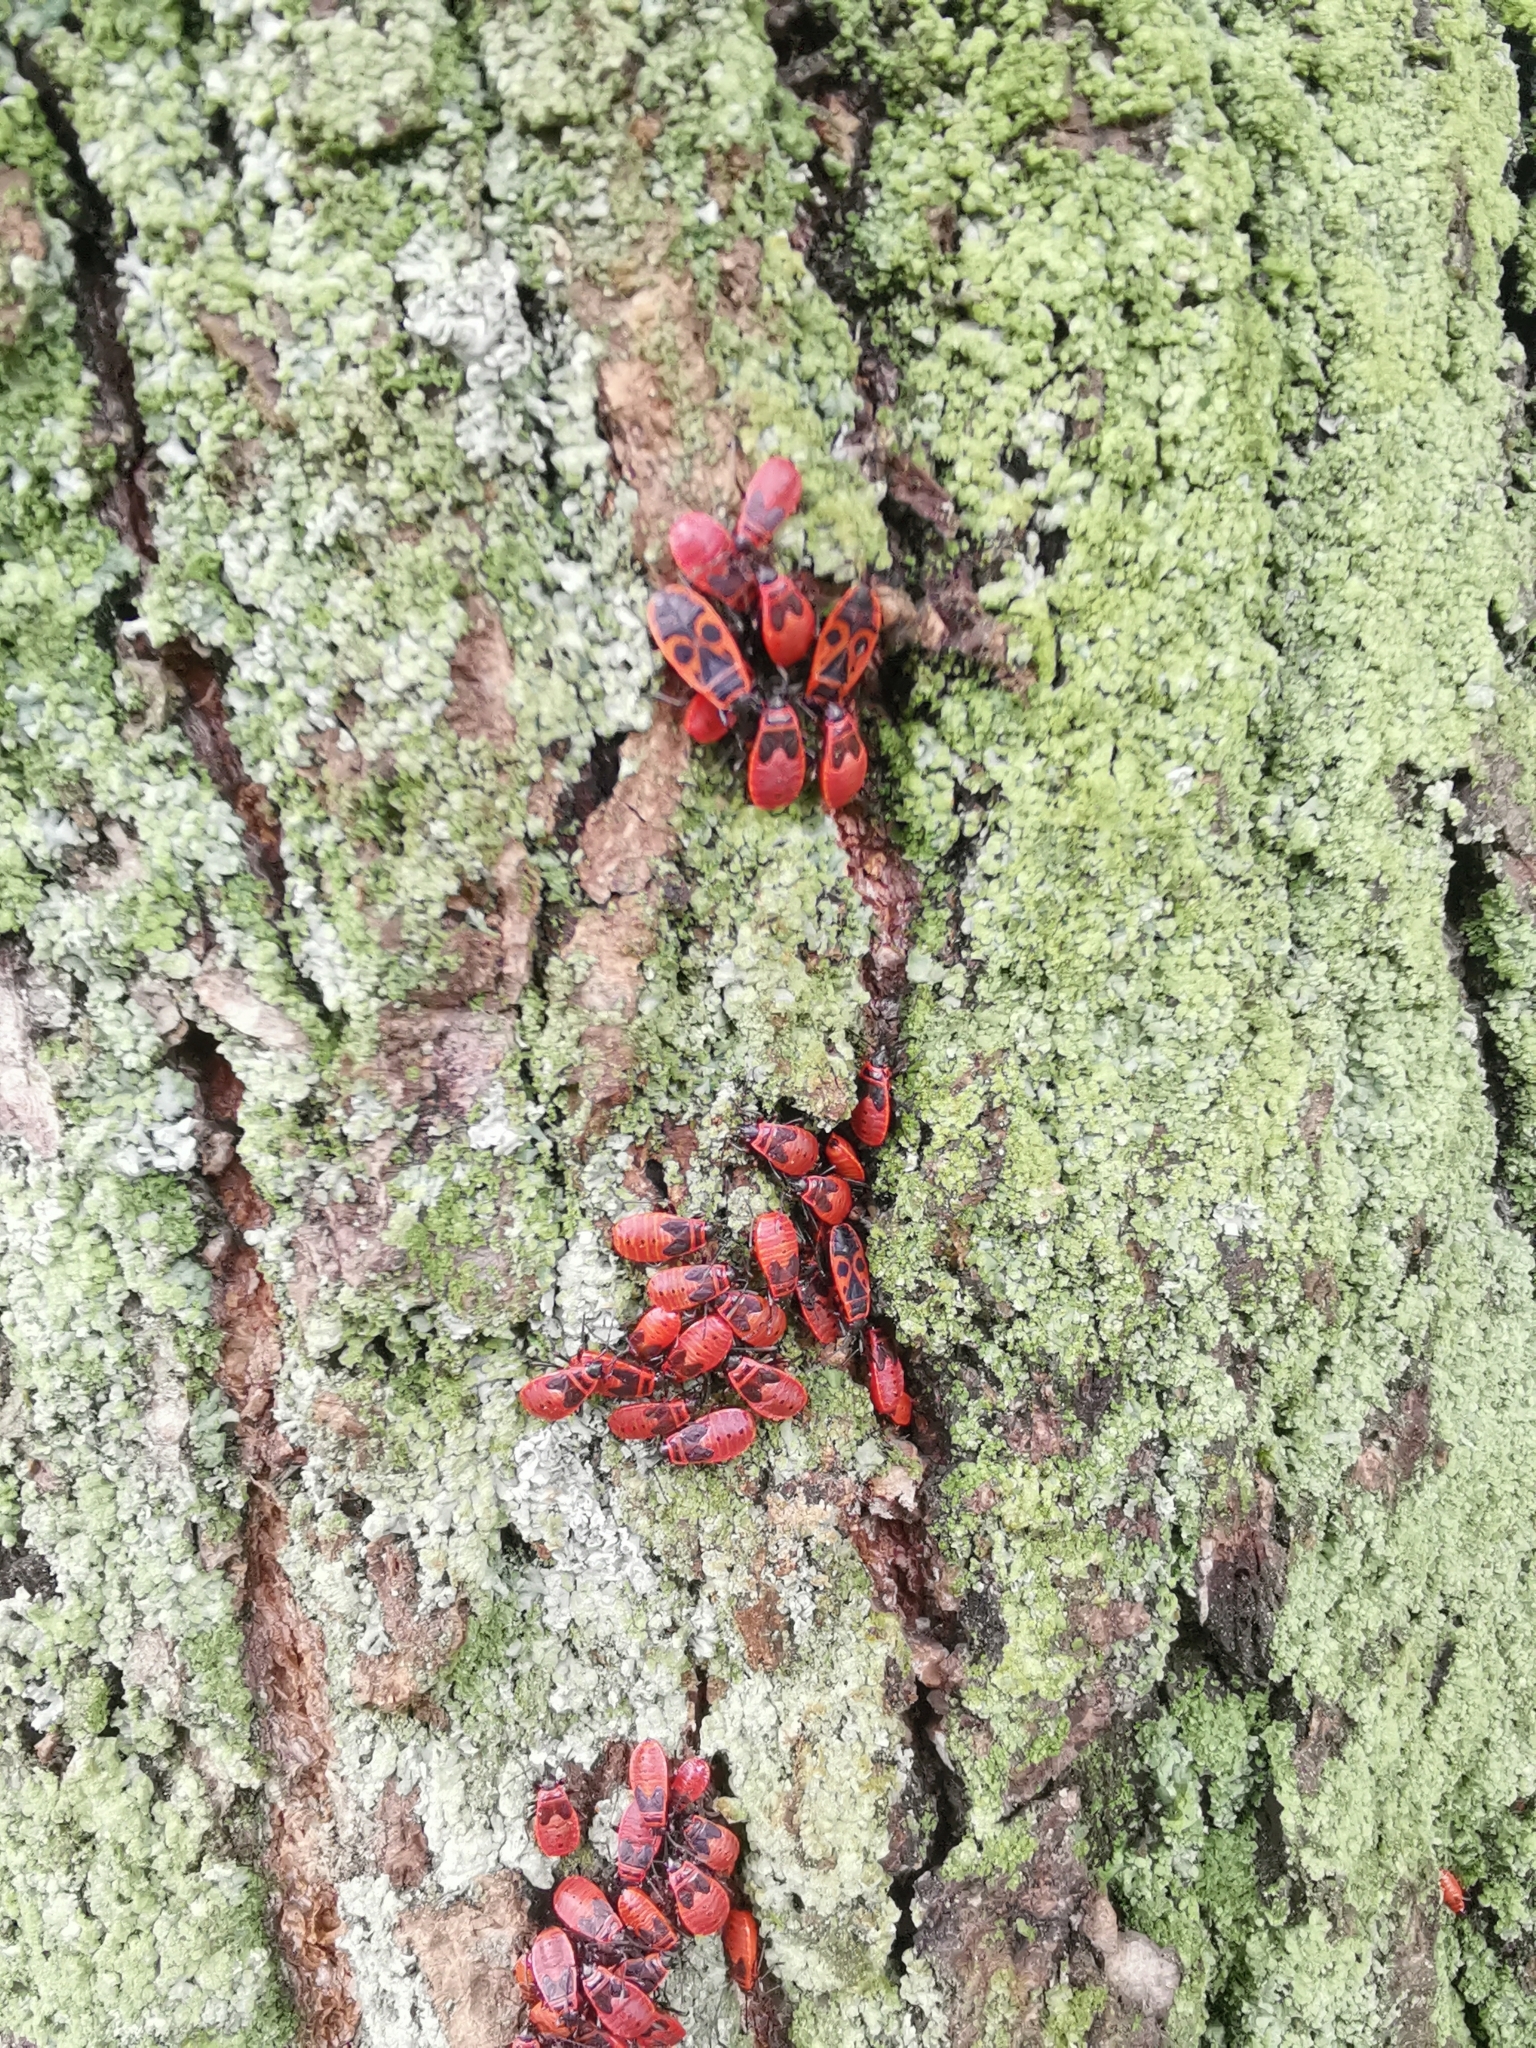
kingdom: Animalia
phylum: Arthropoda
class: Insecta
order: Hemiptera
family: Pyrrhocoridae
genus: Pyrrhocoris
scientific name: Pyrrhocoris apterus
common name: Firebug
